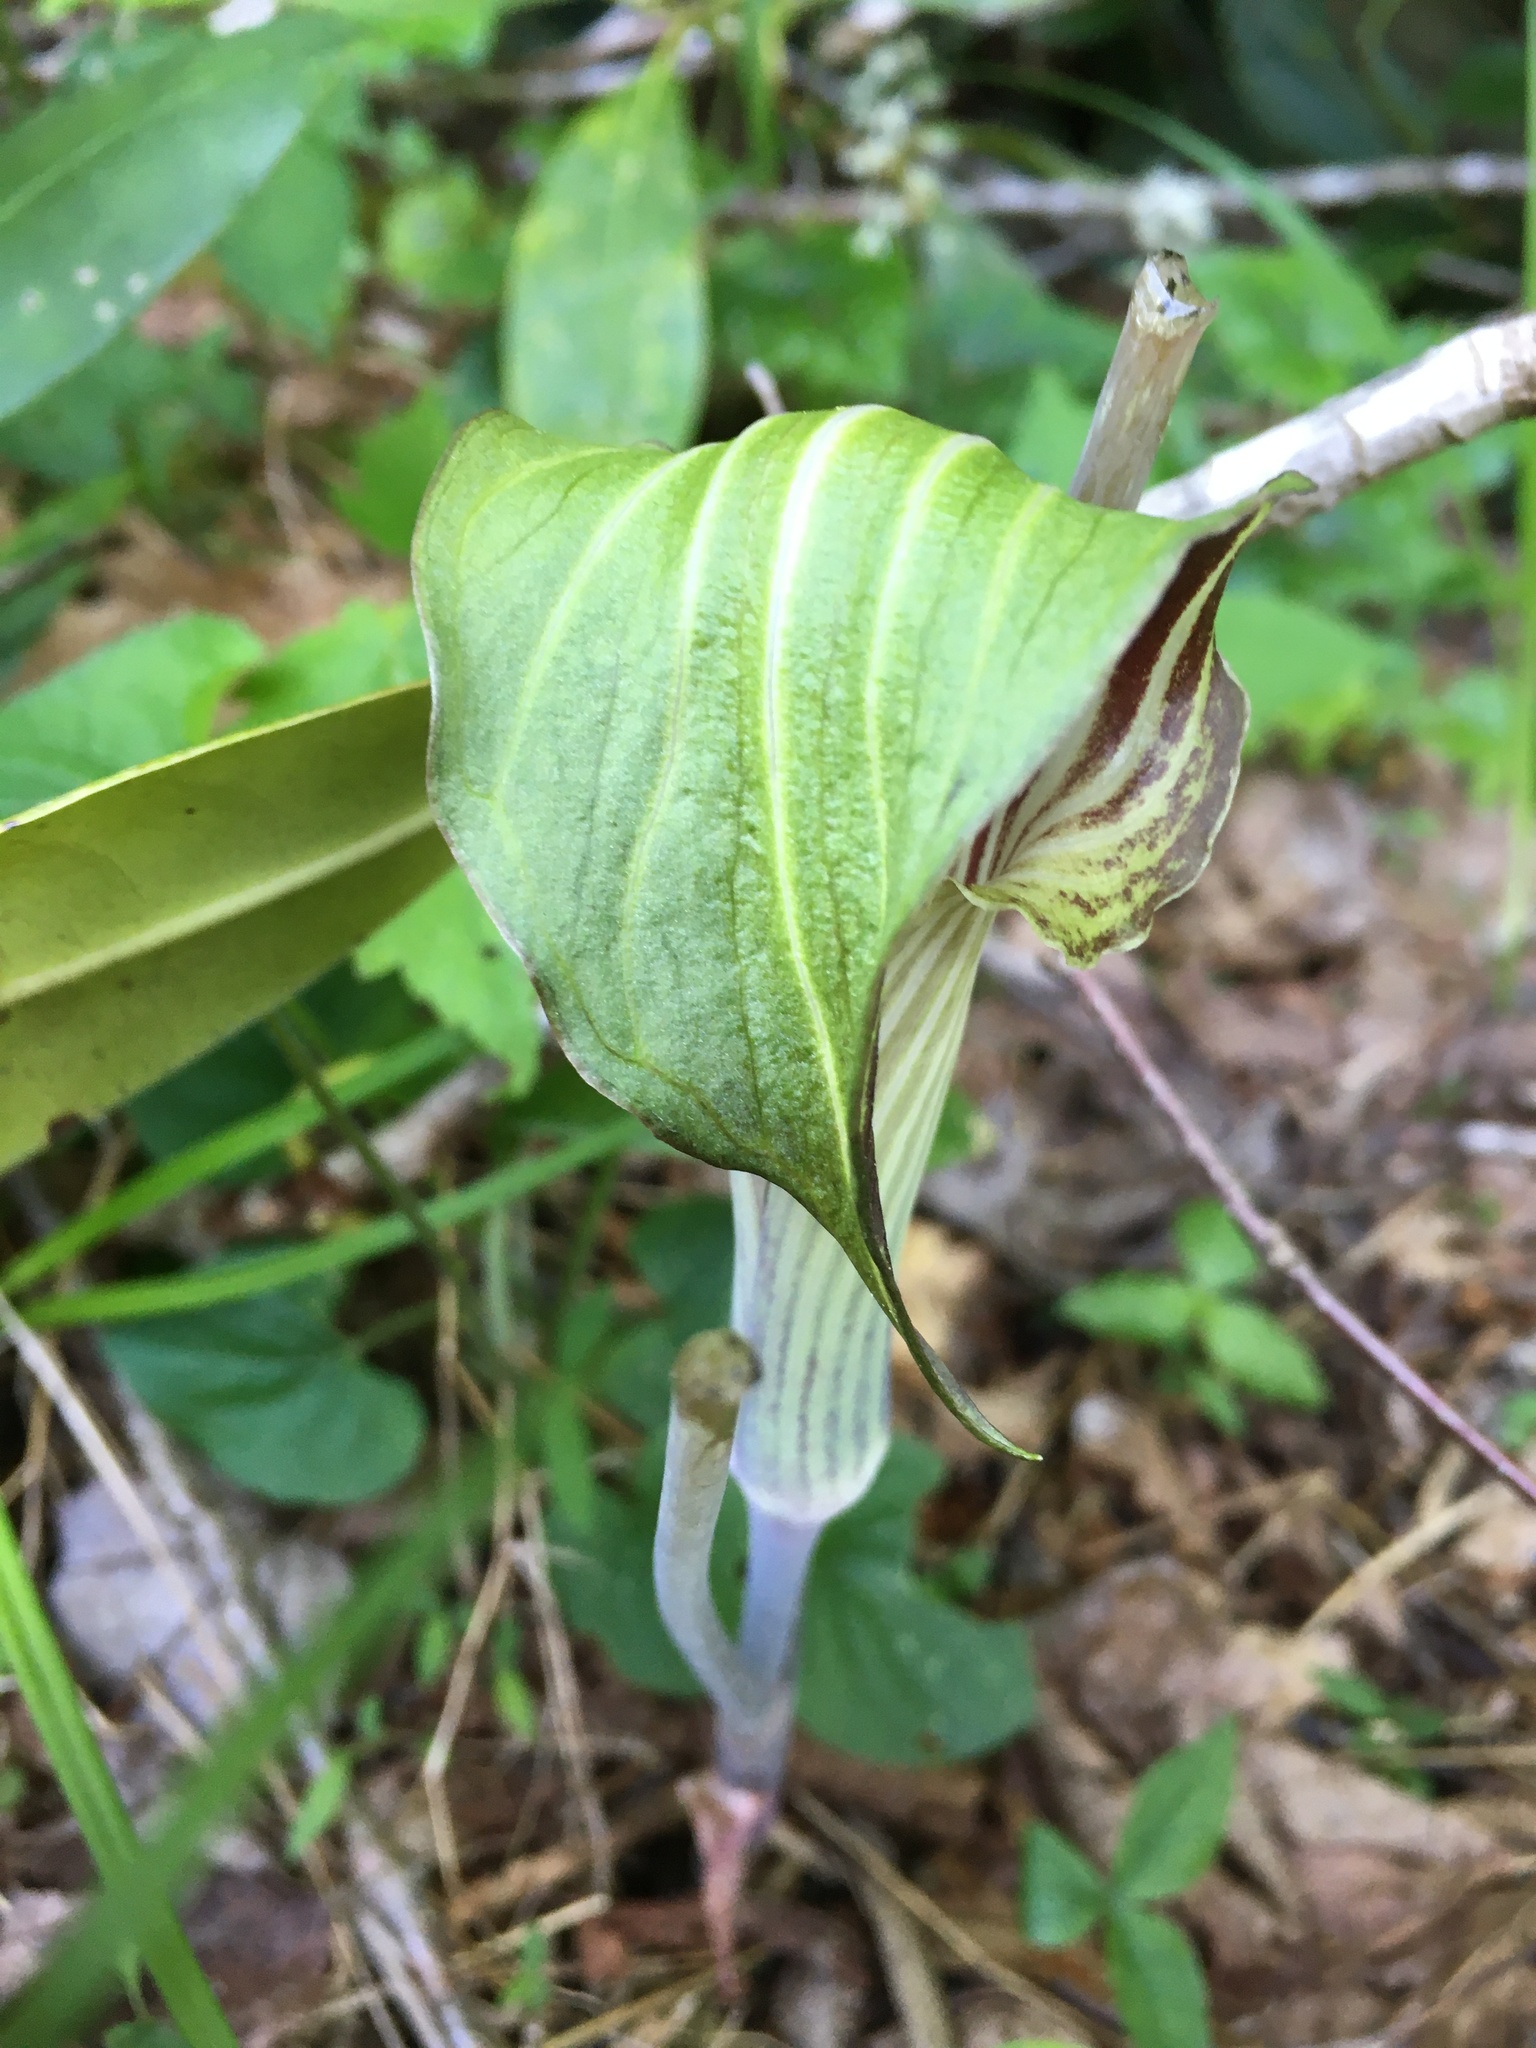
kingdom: Plantae
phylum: Tracheophyta
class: Liliopsida
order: Alismatales
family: Araceae
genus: Arisaema
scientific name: Arisaema triphyllum
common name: Jack-in-the-pulpit
